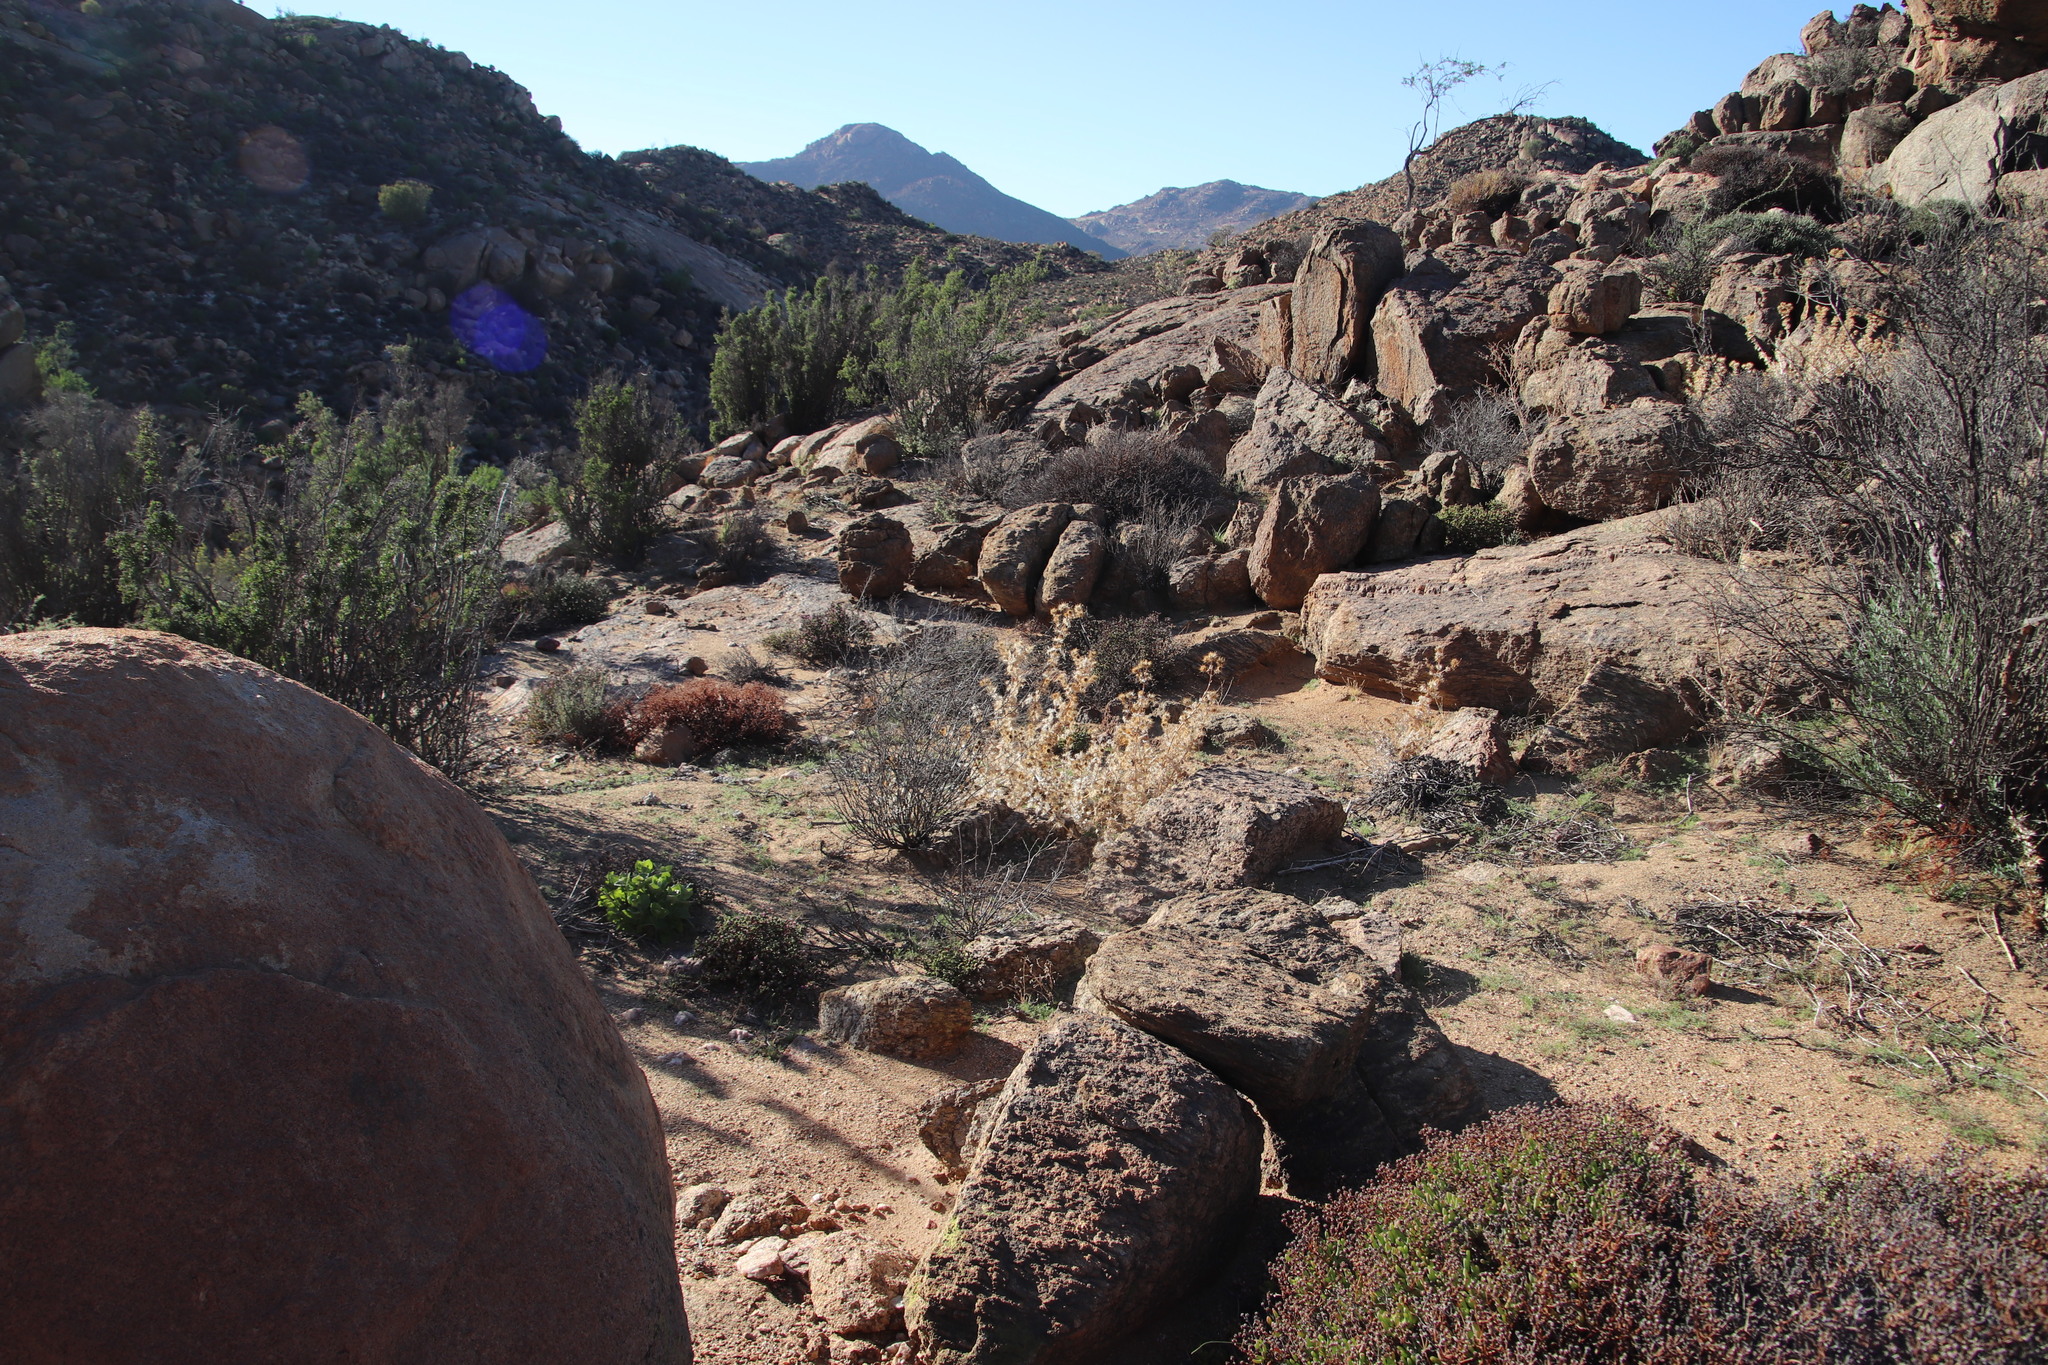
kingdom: Plantae
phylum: Tracheophyta
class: Magnoliopsida
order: Asterales
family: Asteraceae
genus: Berkheya
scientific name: Berkheya spinosissima
